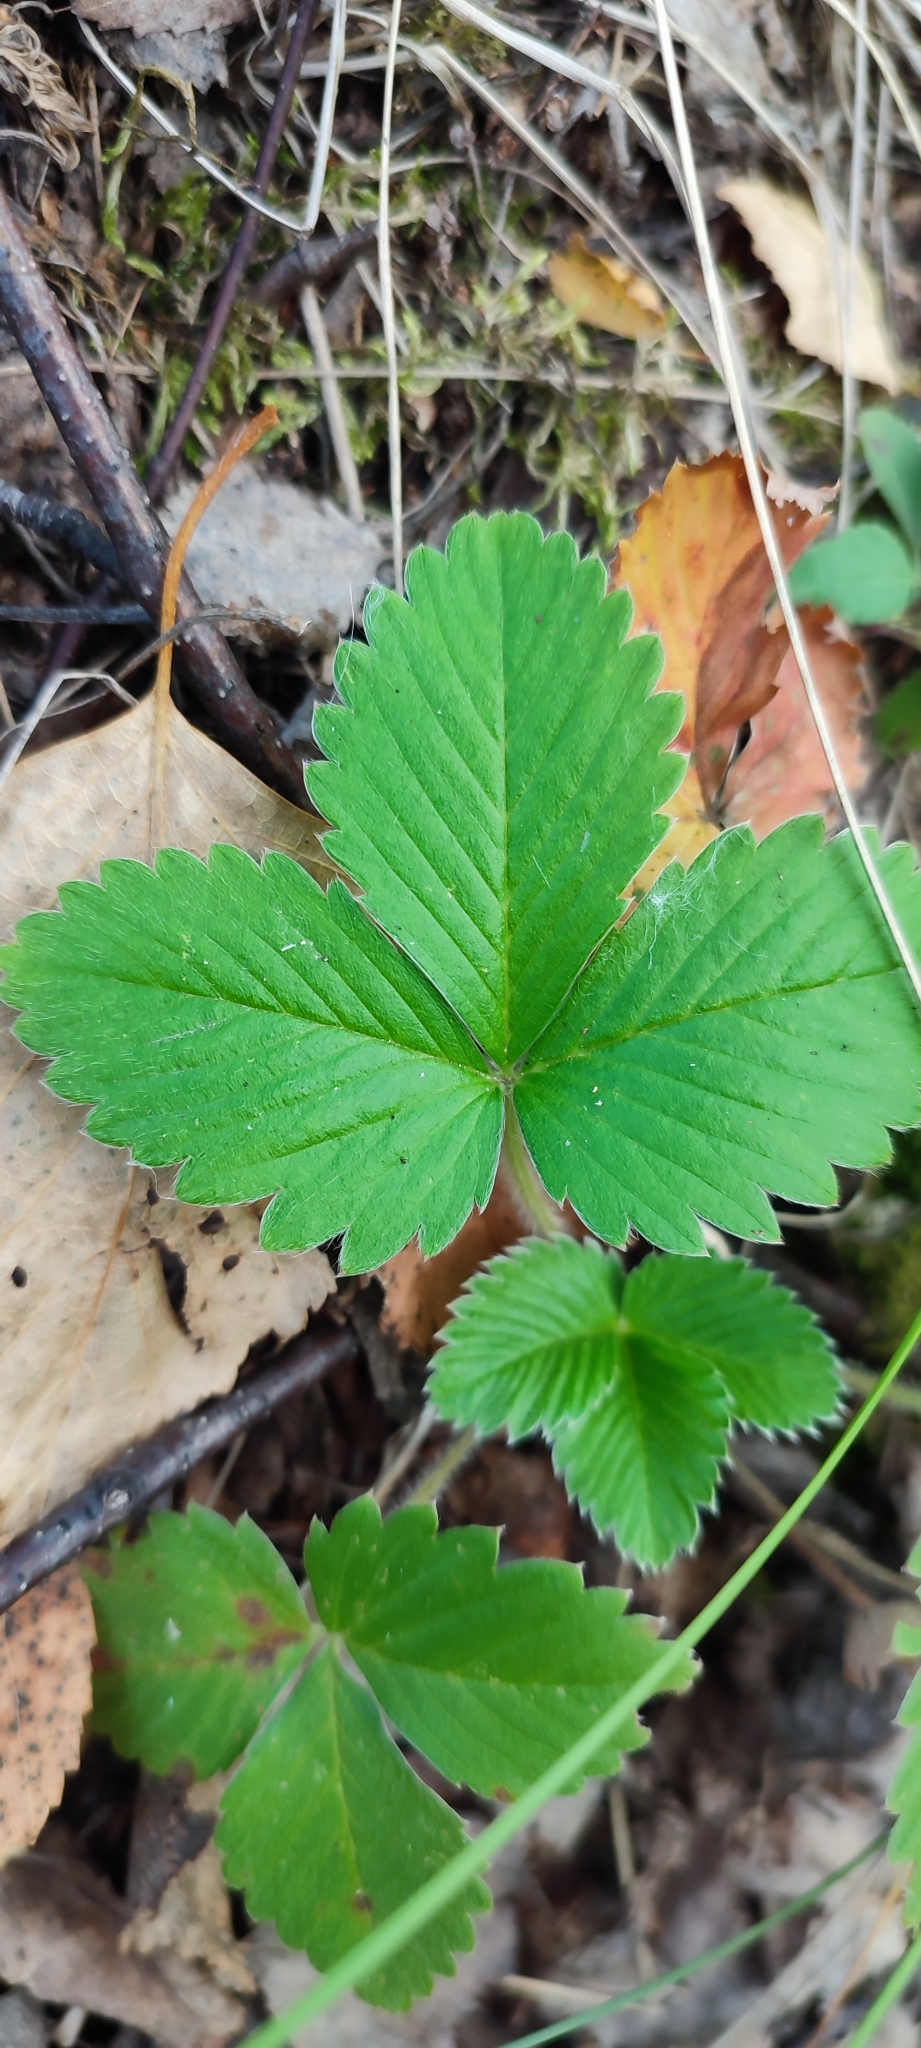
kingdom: Plantae
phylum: Tracheophyta
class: Magnoliopsida
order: Rosales
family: Rosaceae
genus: Fragaria
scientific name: Fragaria vesca
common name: Wild strawberry
